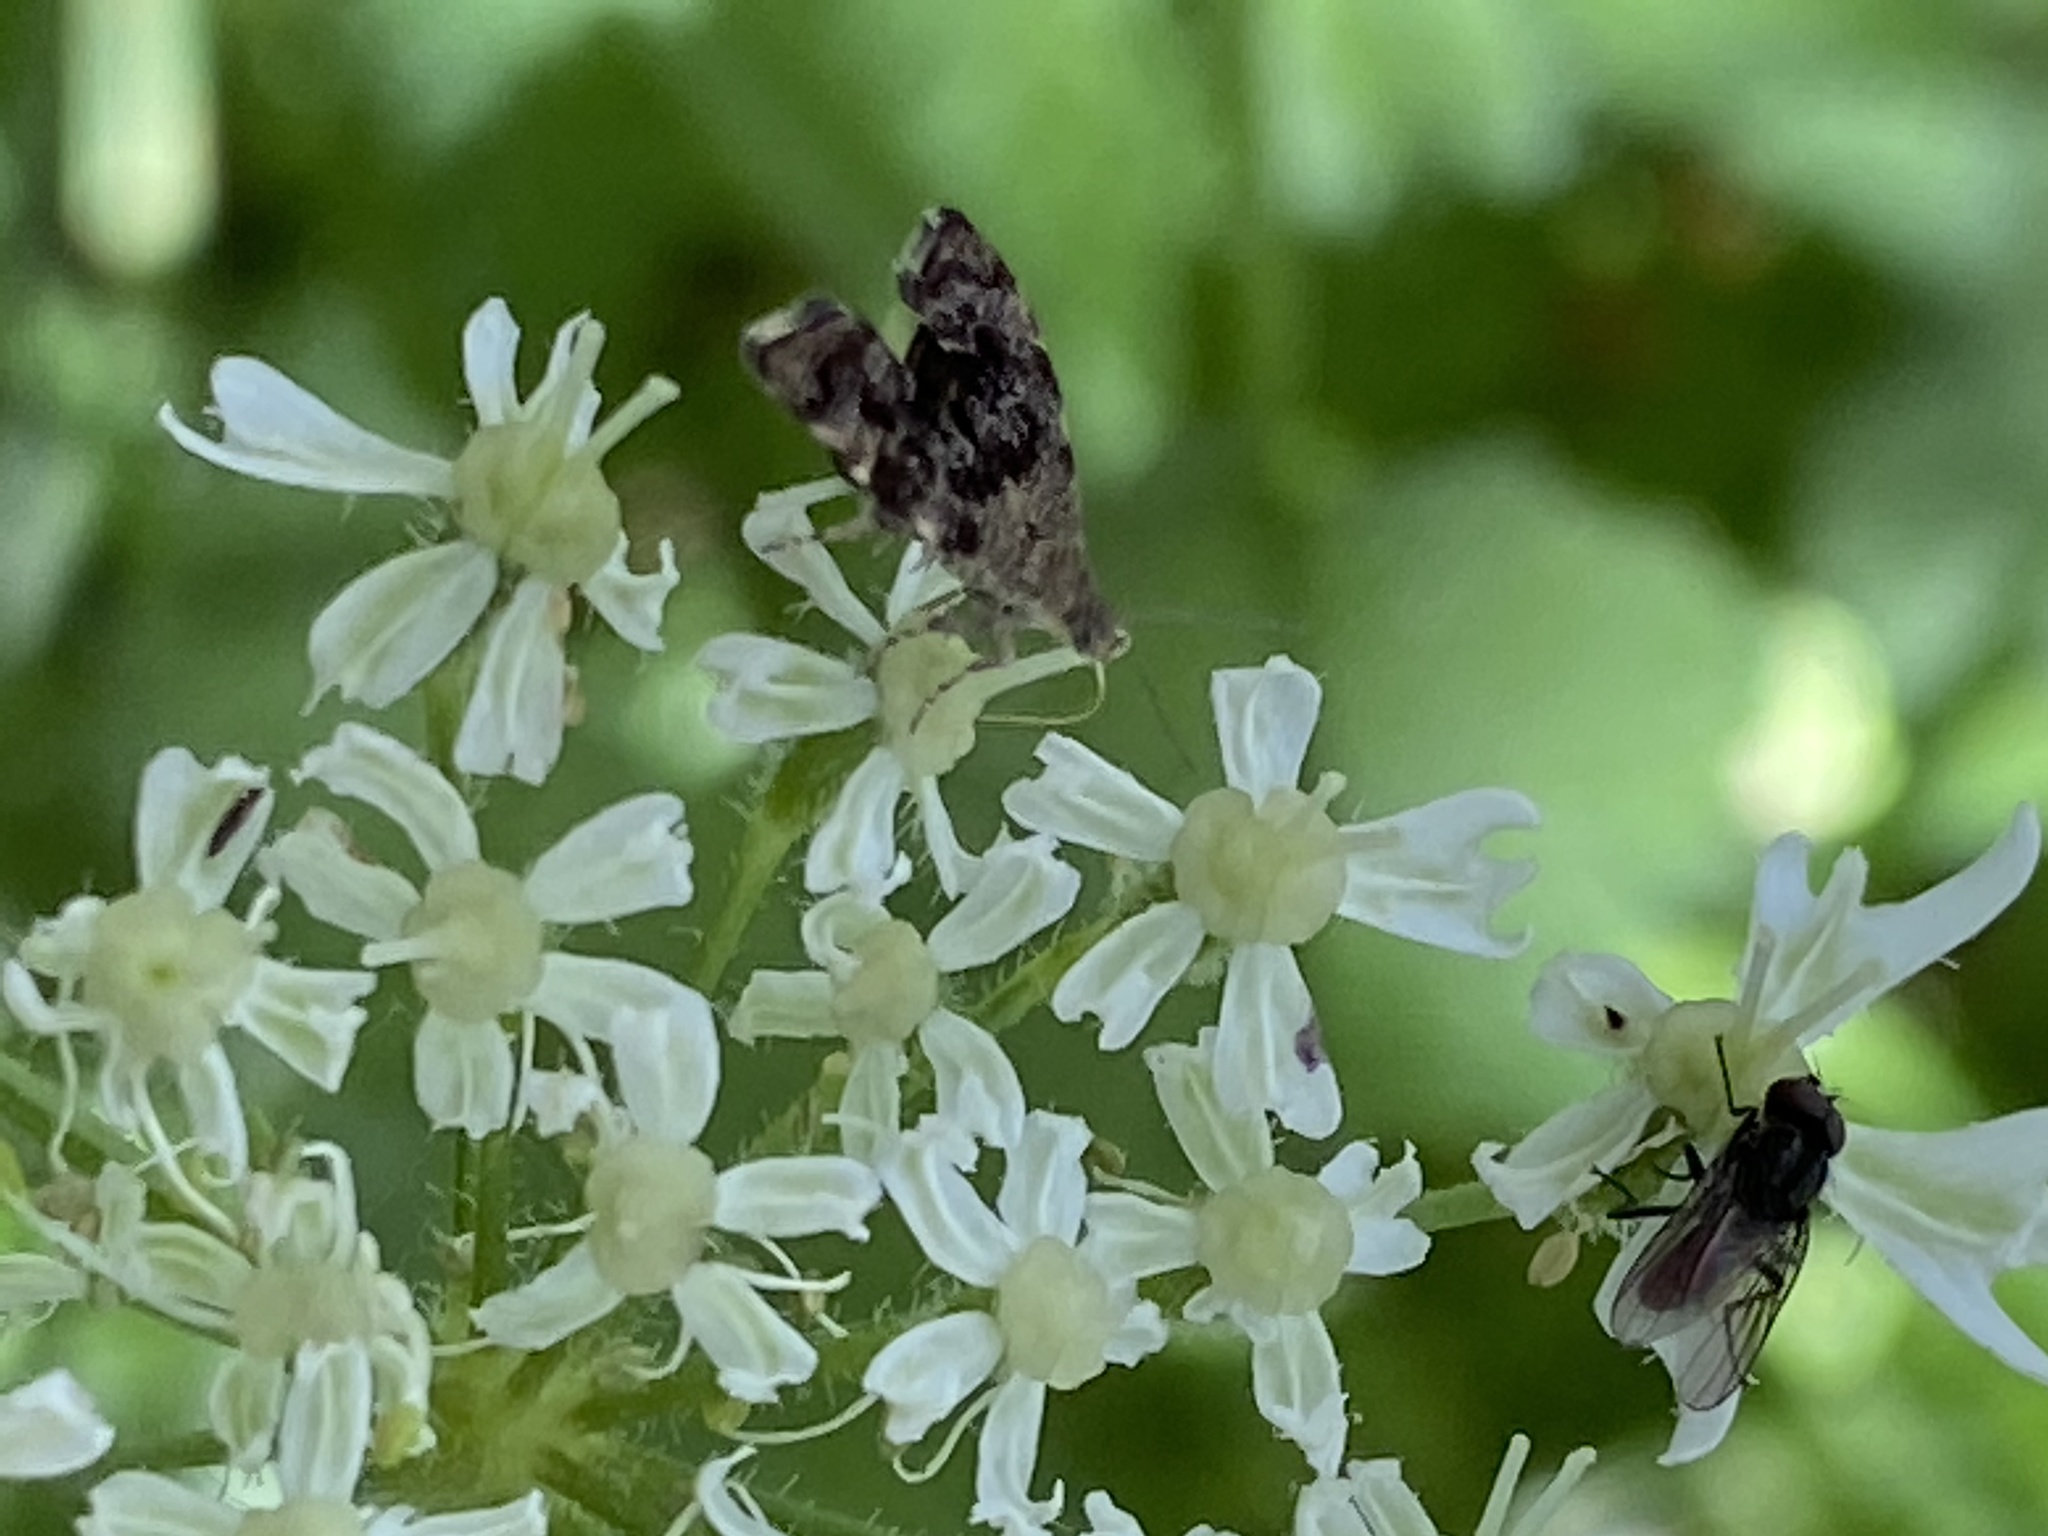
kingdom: Animalia
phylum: Arthropoda
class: Insecta
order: Lepidoptera
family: Choreutidae
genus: Anthophila
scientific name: Anthophila fabriciana
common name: Nettle-tap
